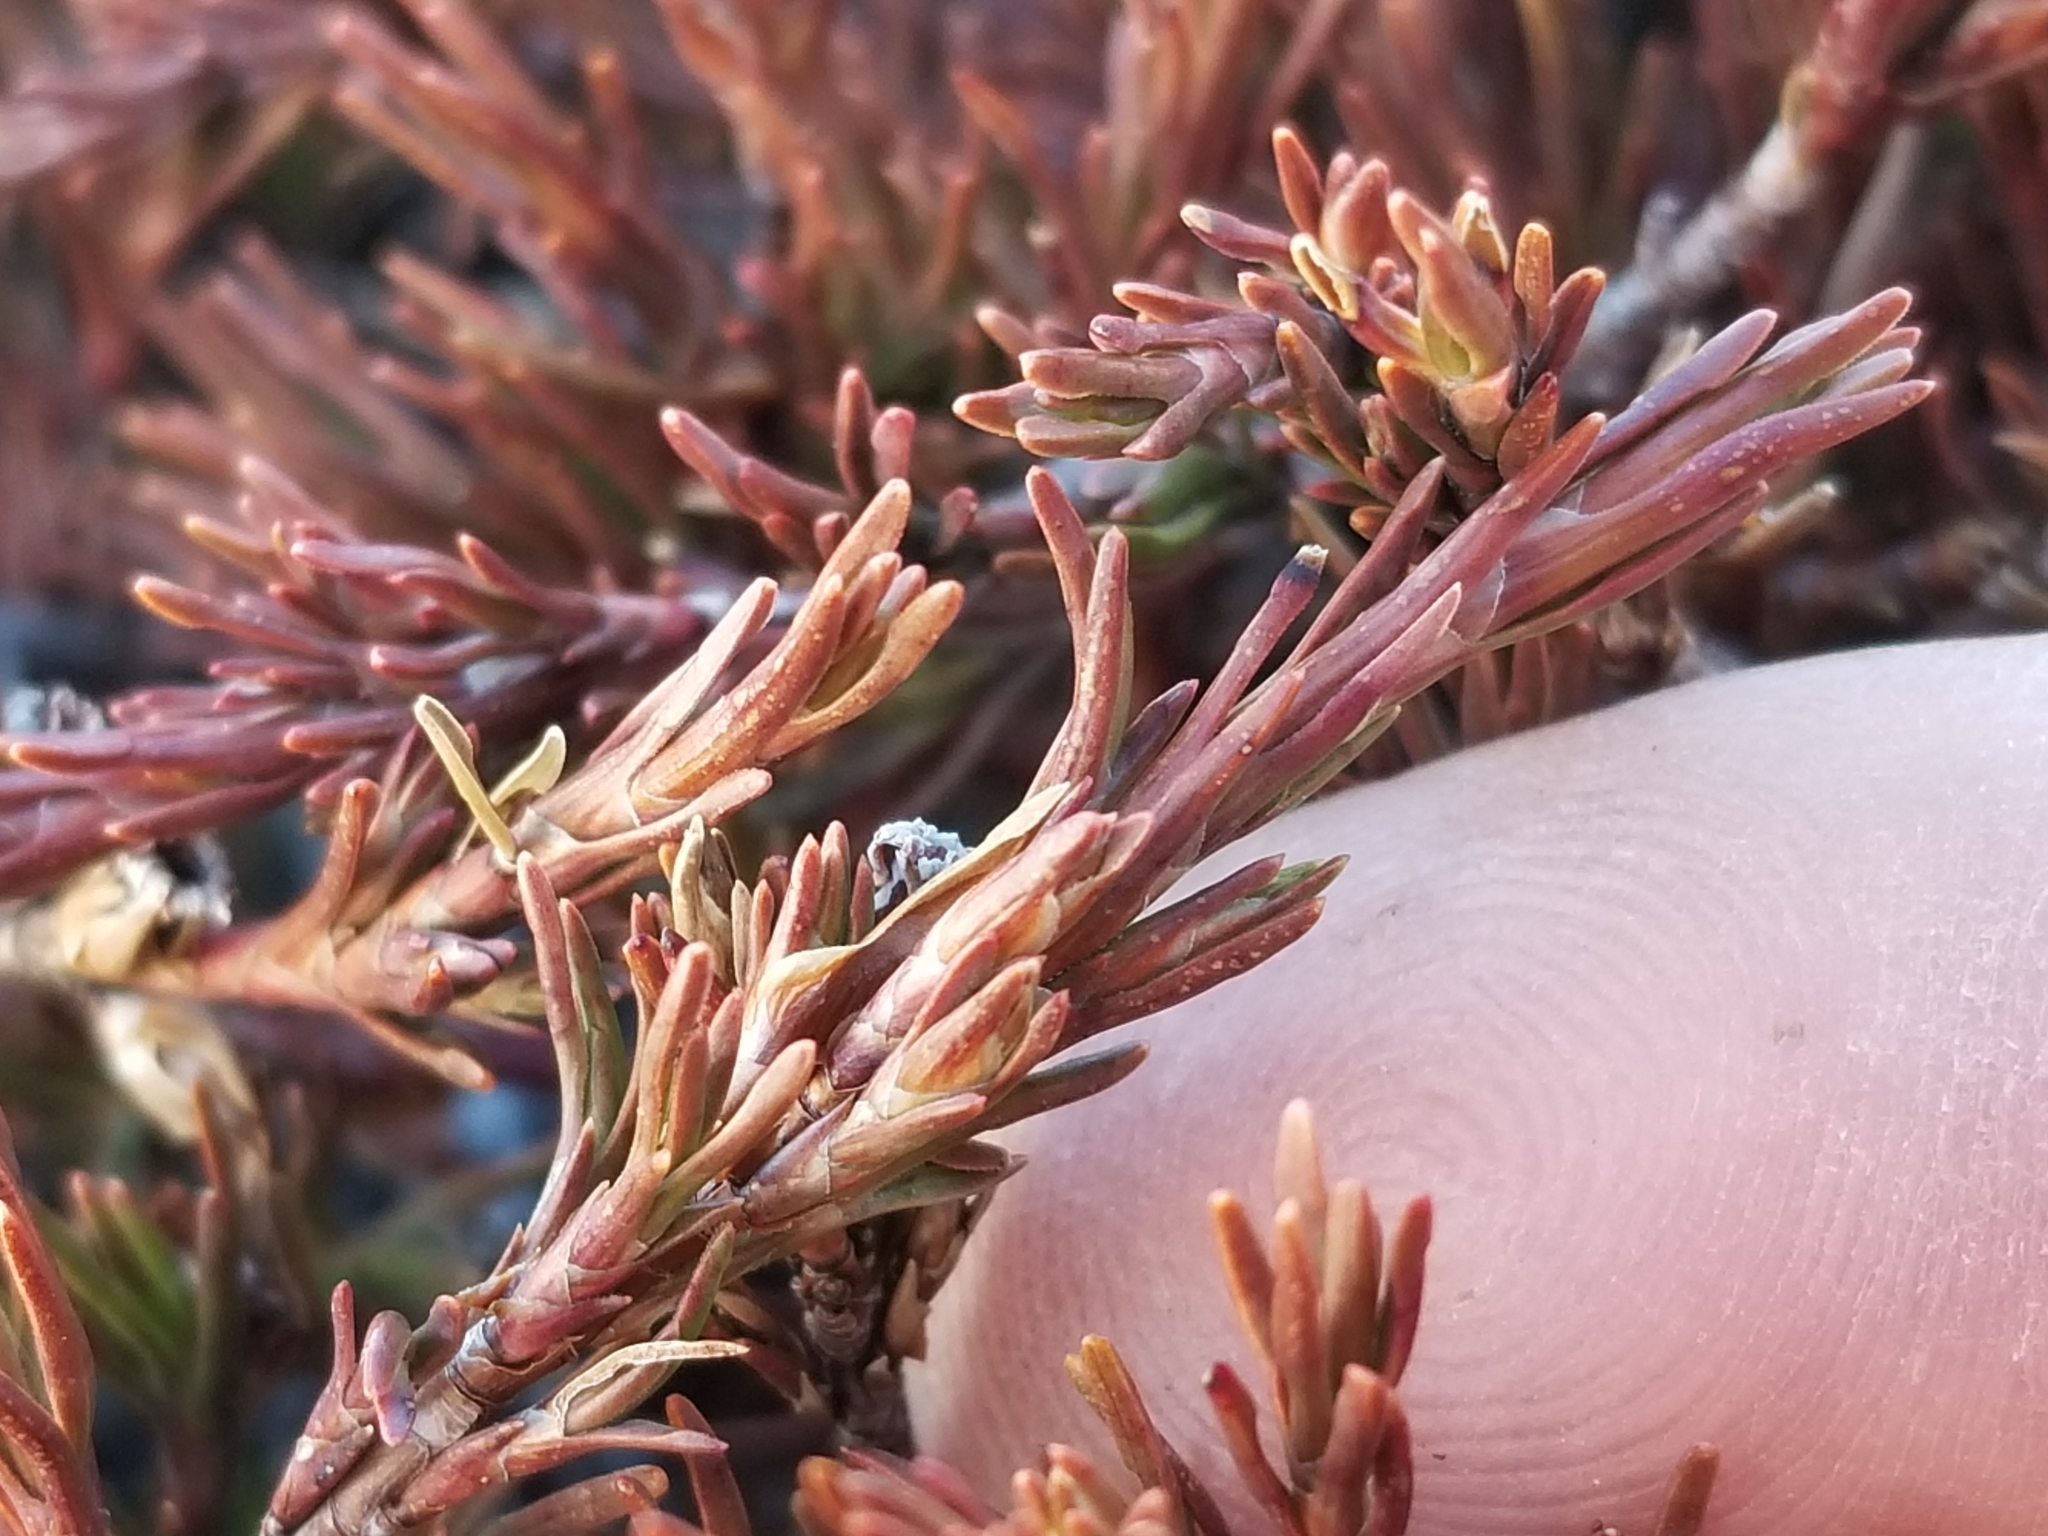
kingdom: Plantae
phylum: Tracheophyta
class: Magnoliopsida
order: Ericales
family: Ericaceae
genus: Dracophyllum
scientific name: Dracophyllum pronum
